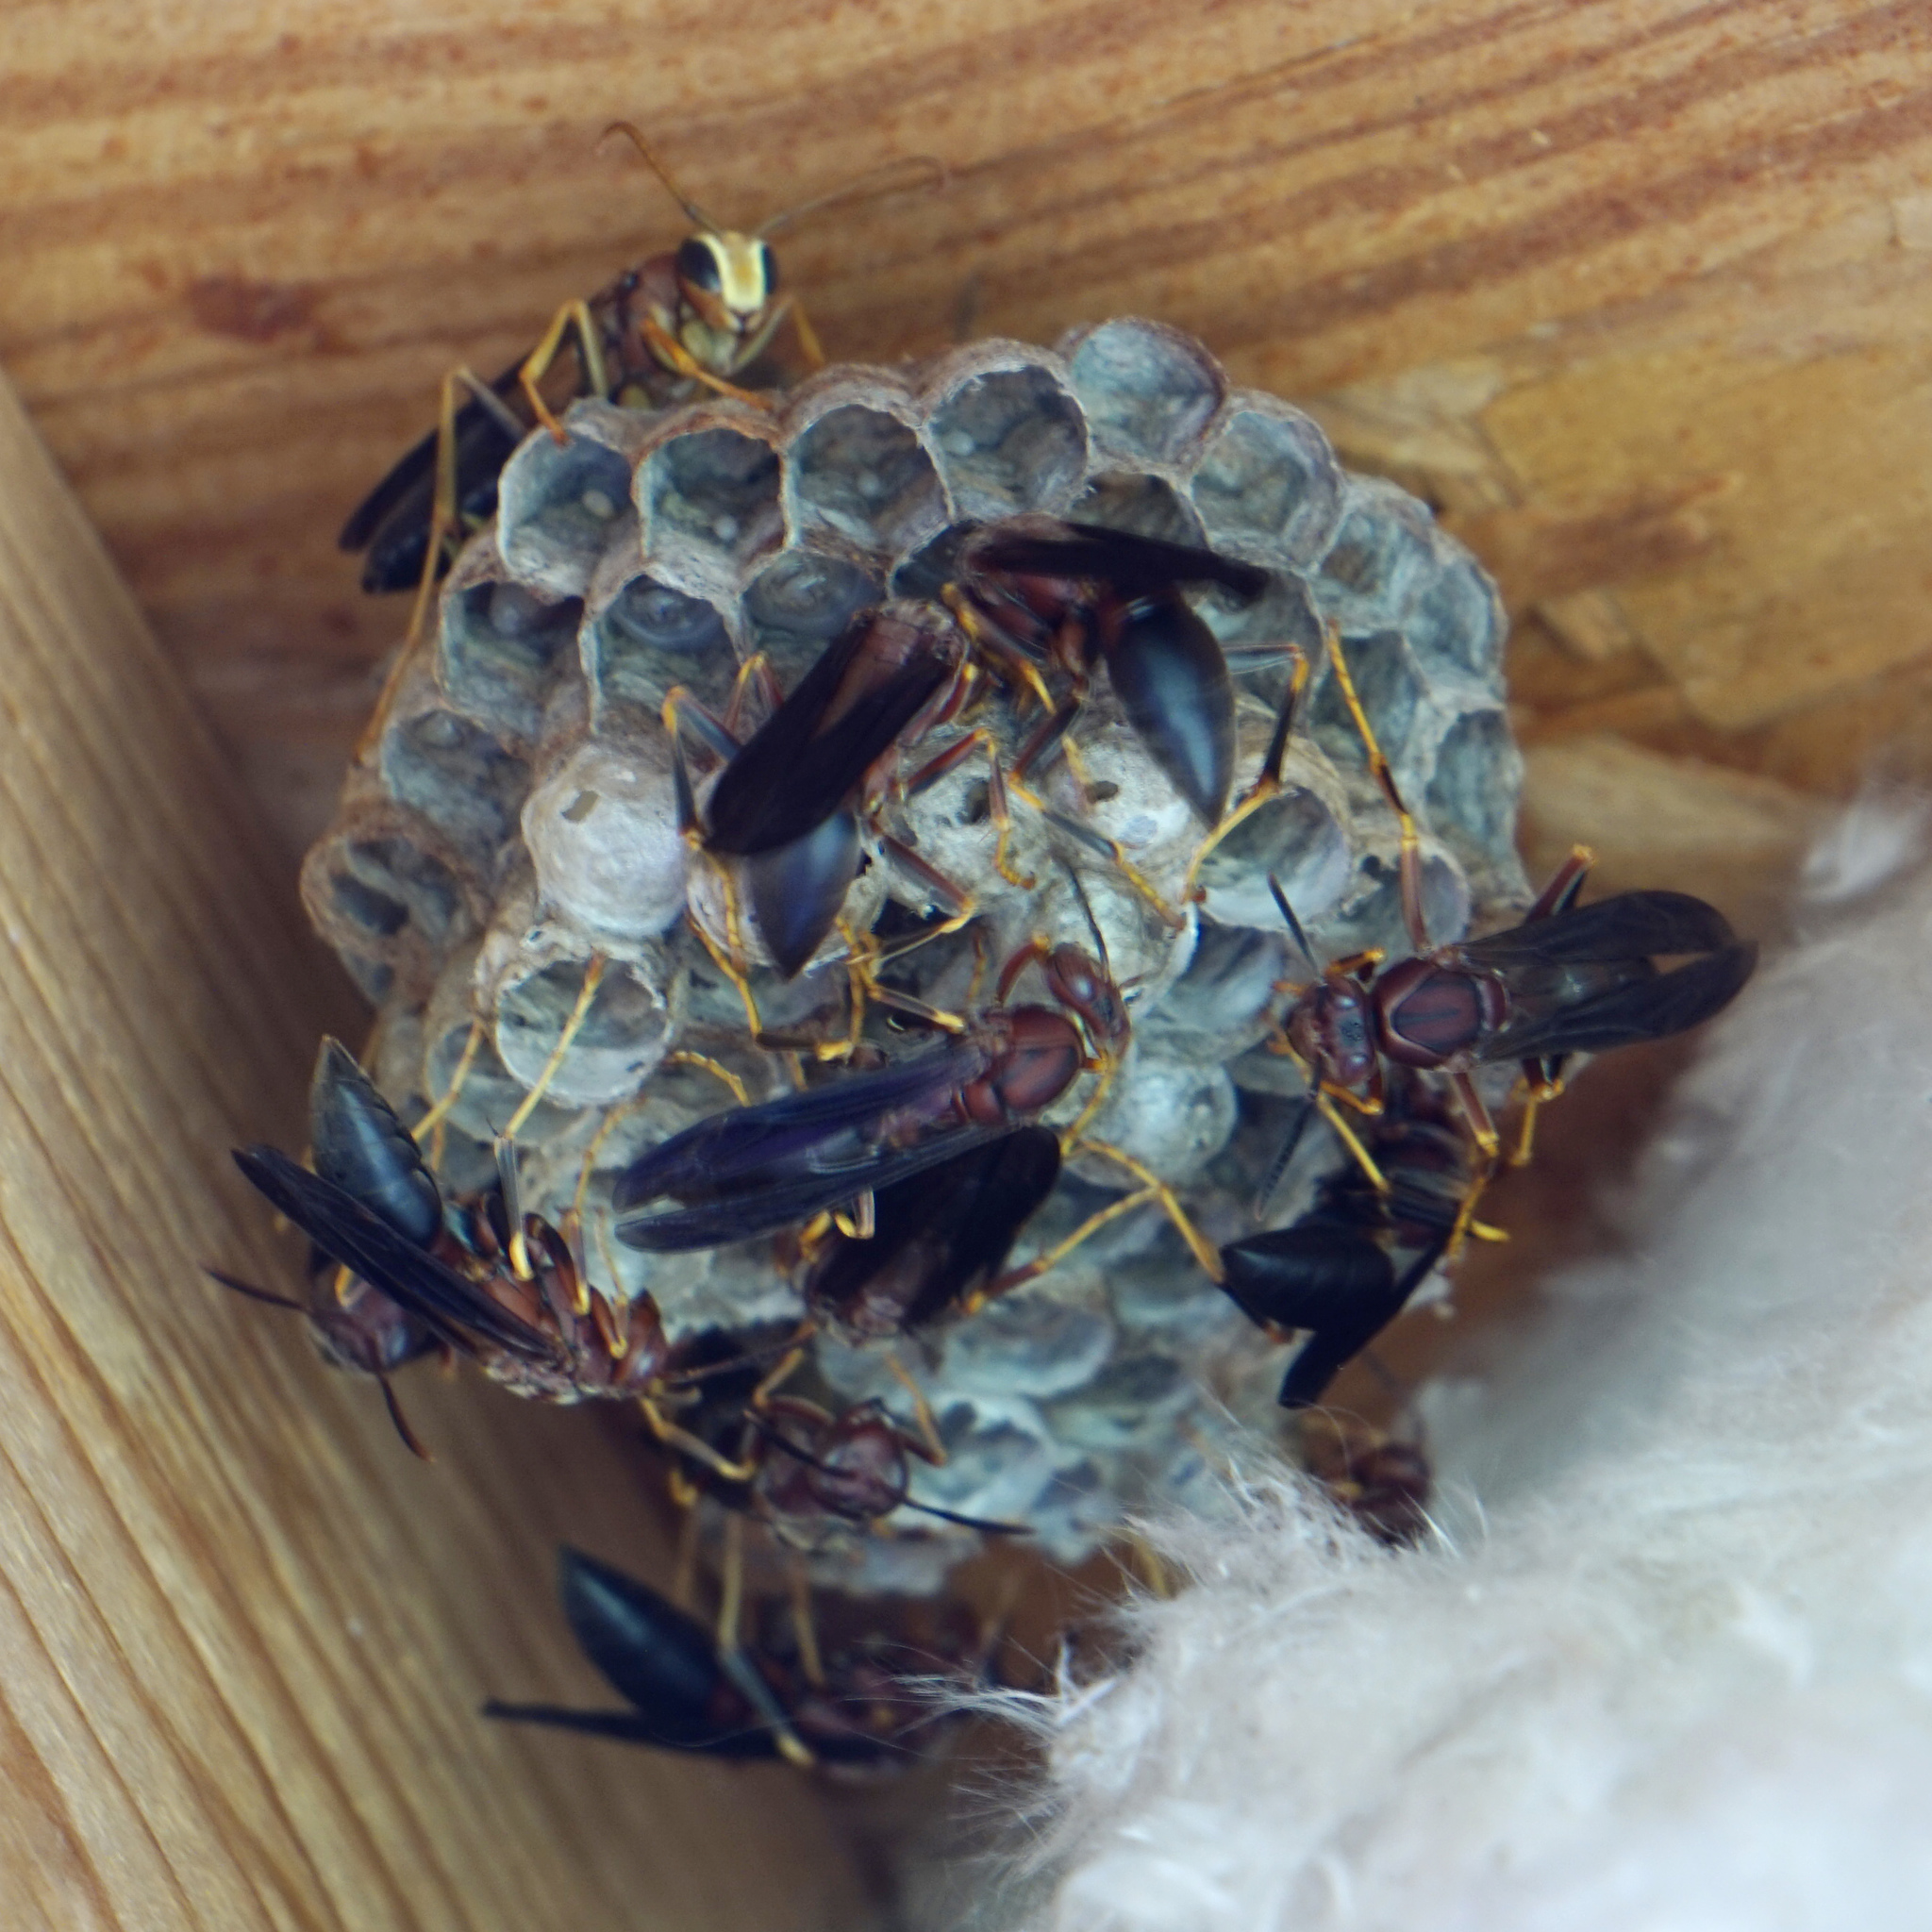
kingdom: Animalia
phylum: Arthropoda
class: Insecta
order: Hymenoptera
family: Eumenidae
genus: Polistes
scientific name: Polistes metricus
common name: Metric paper wasp
